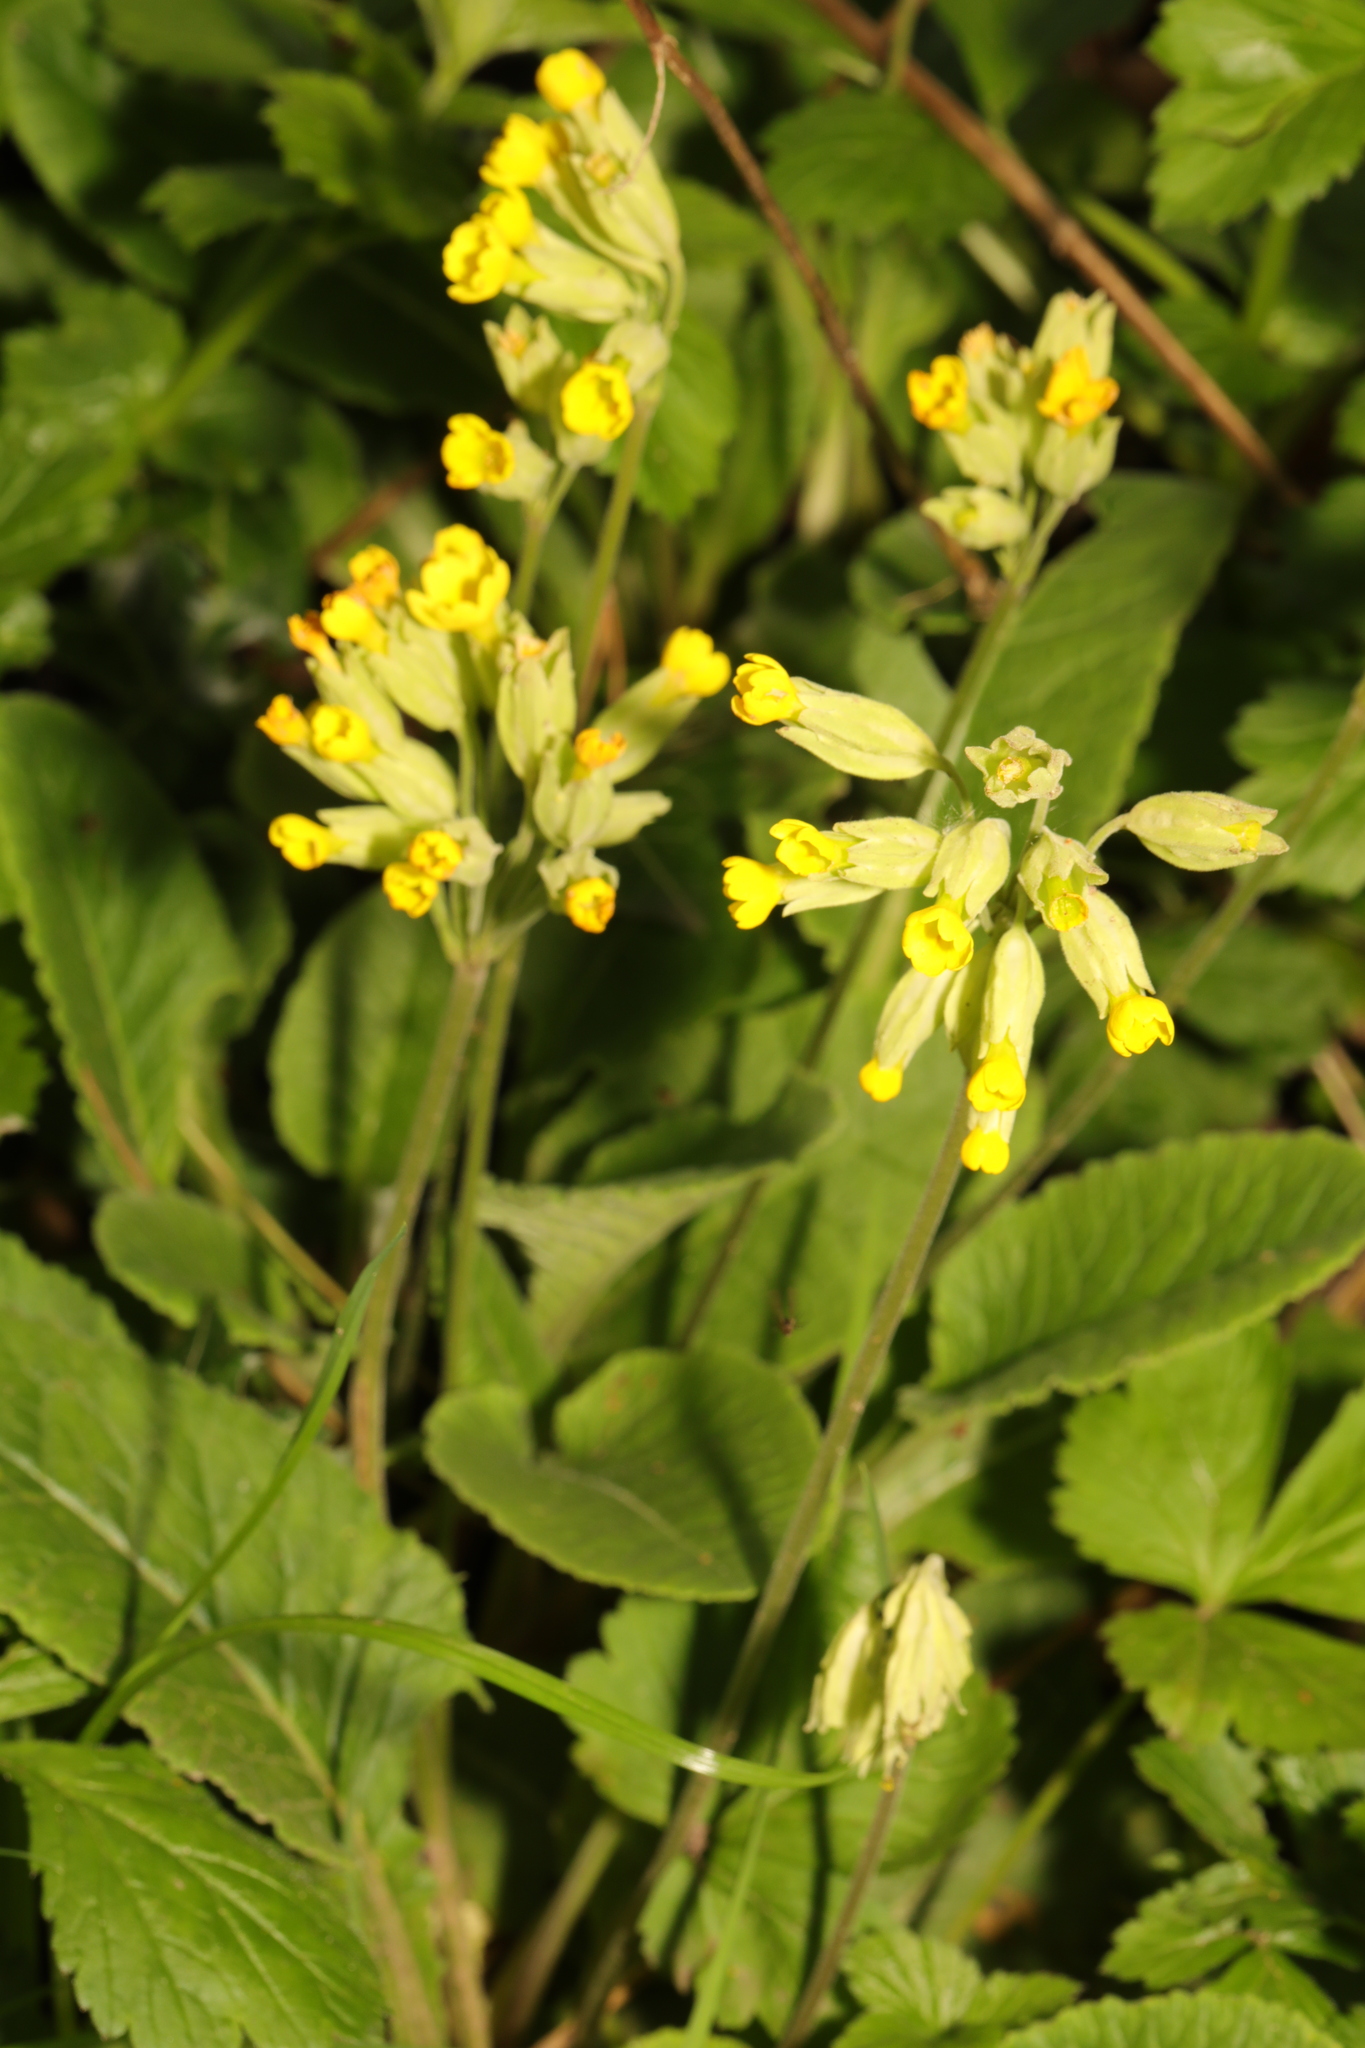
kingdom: Plantae
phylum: Tracheophyta
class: Magnoliopsida
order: Ericales
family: Primulaceae
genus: Primula
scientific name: Primula veris
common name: Cowslip
